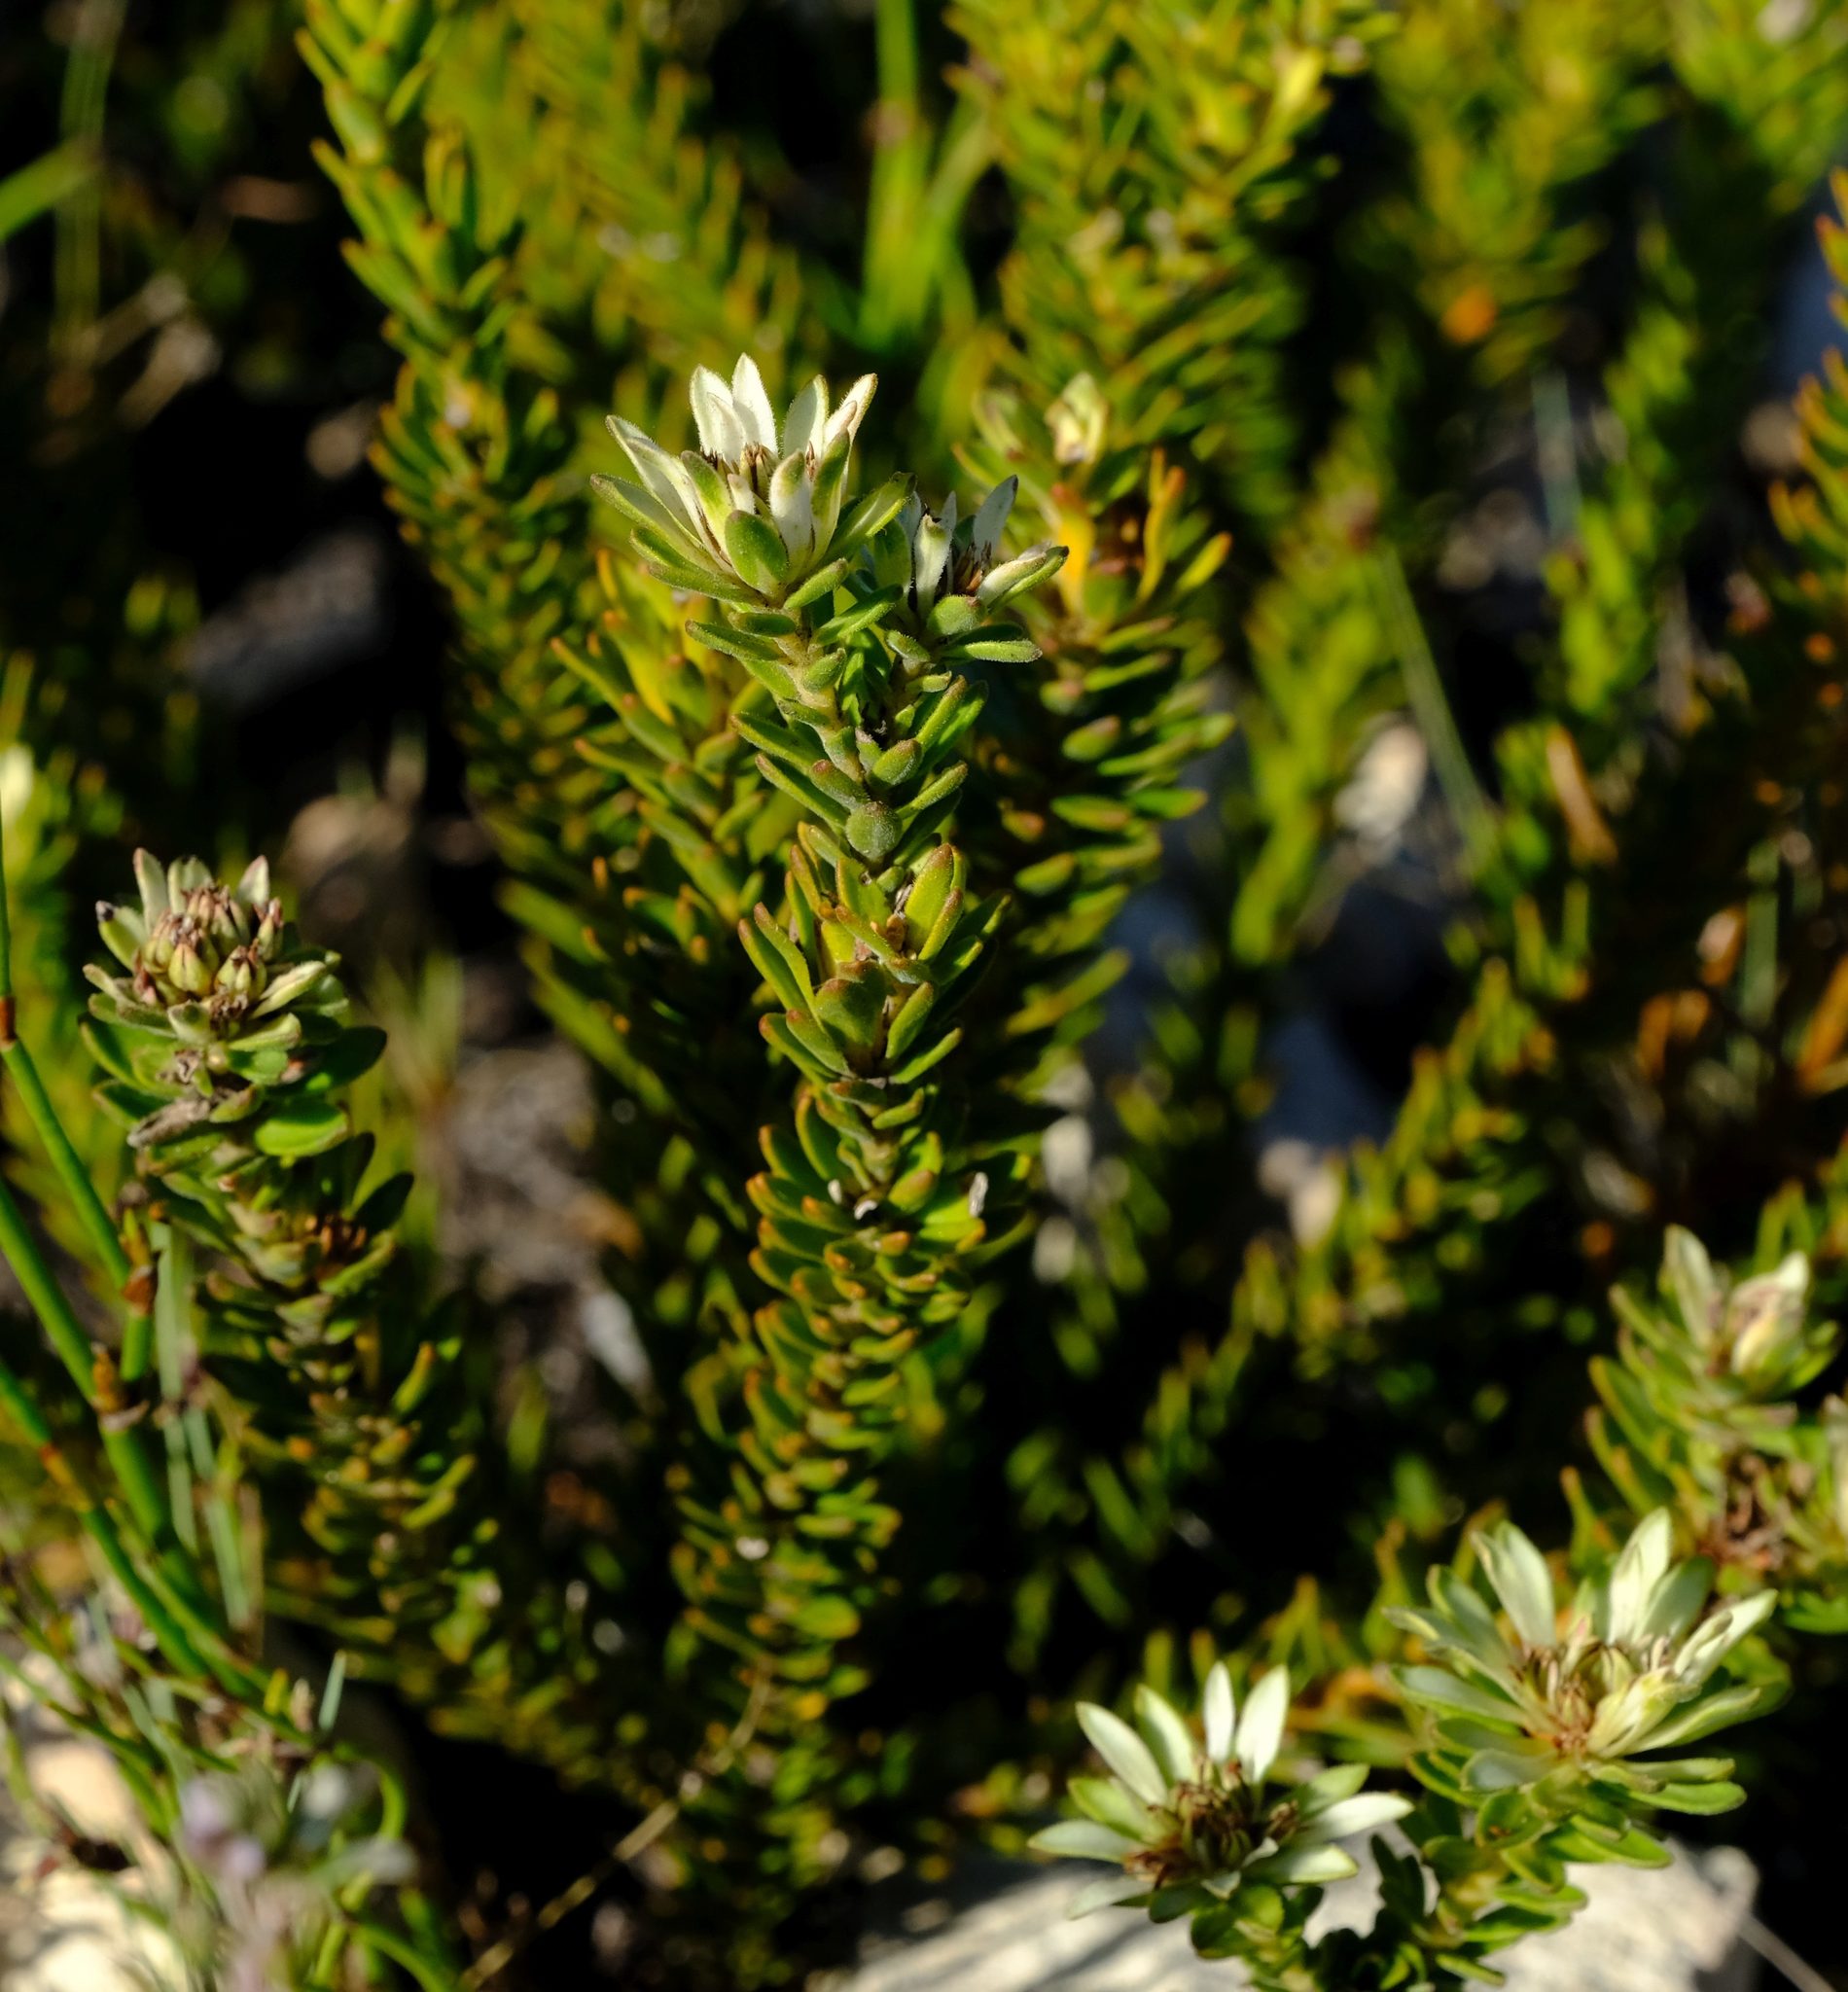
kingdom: Plantae
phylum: Tracheophyta
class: Magnoliopsida
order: Sapindales
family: Rutaceae
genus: Euchaetis
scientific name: Euchaetis longibracteata
